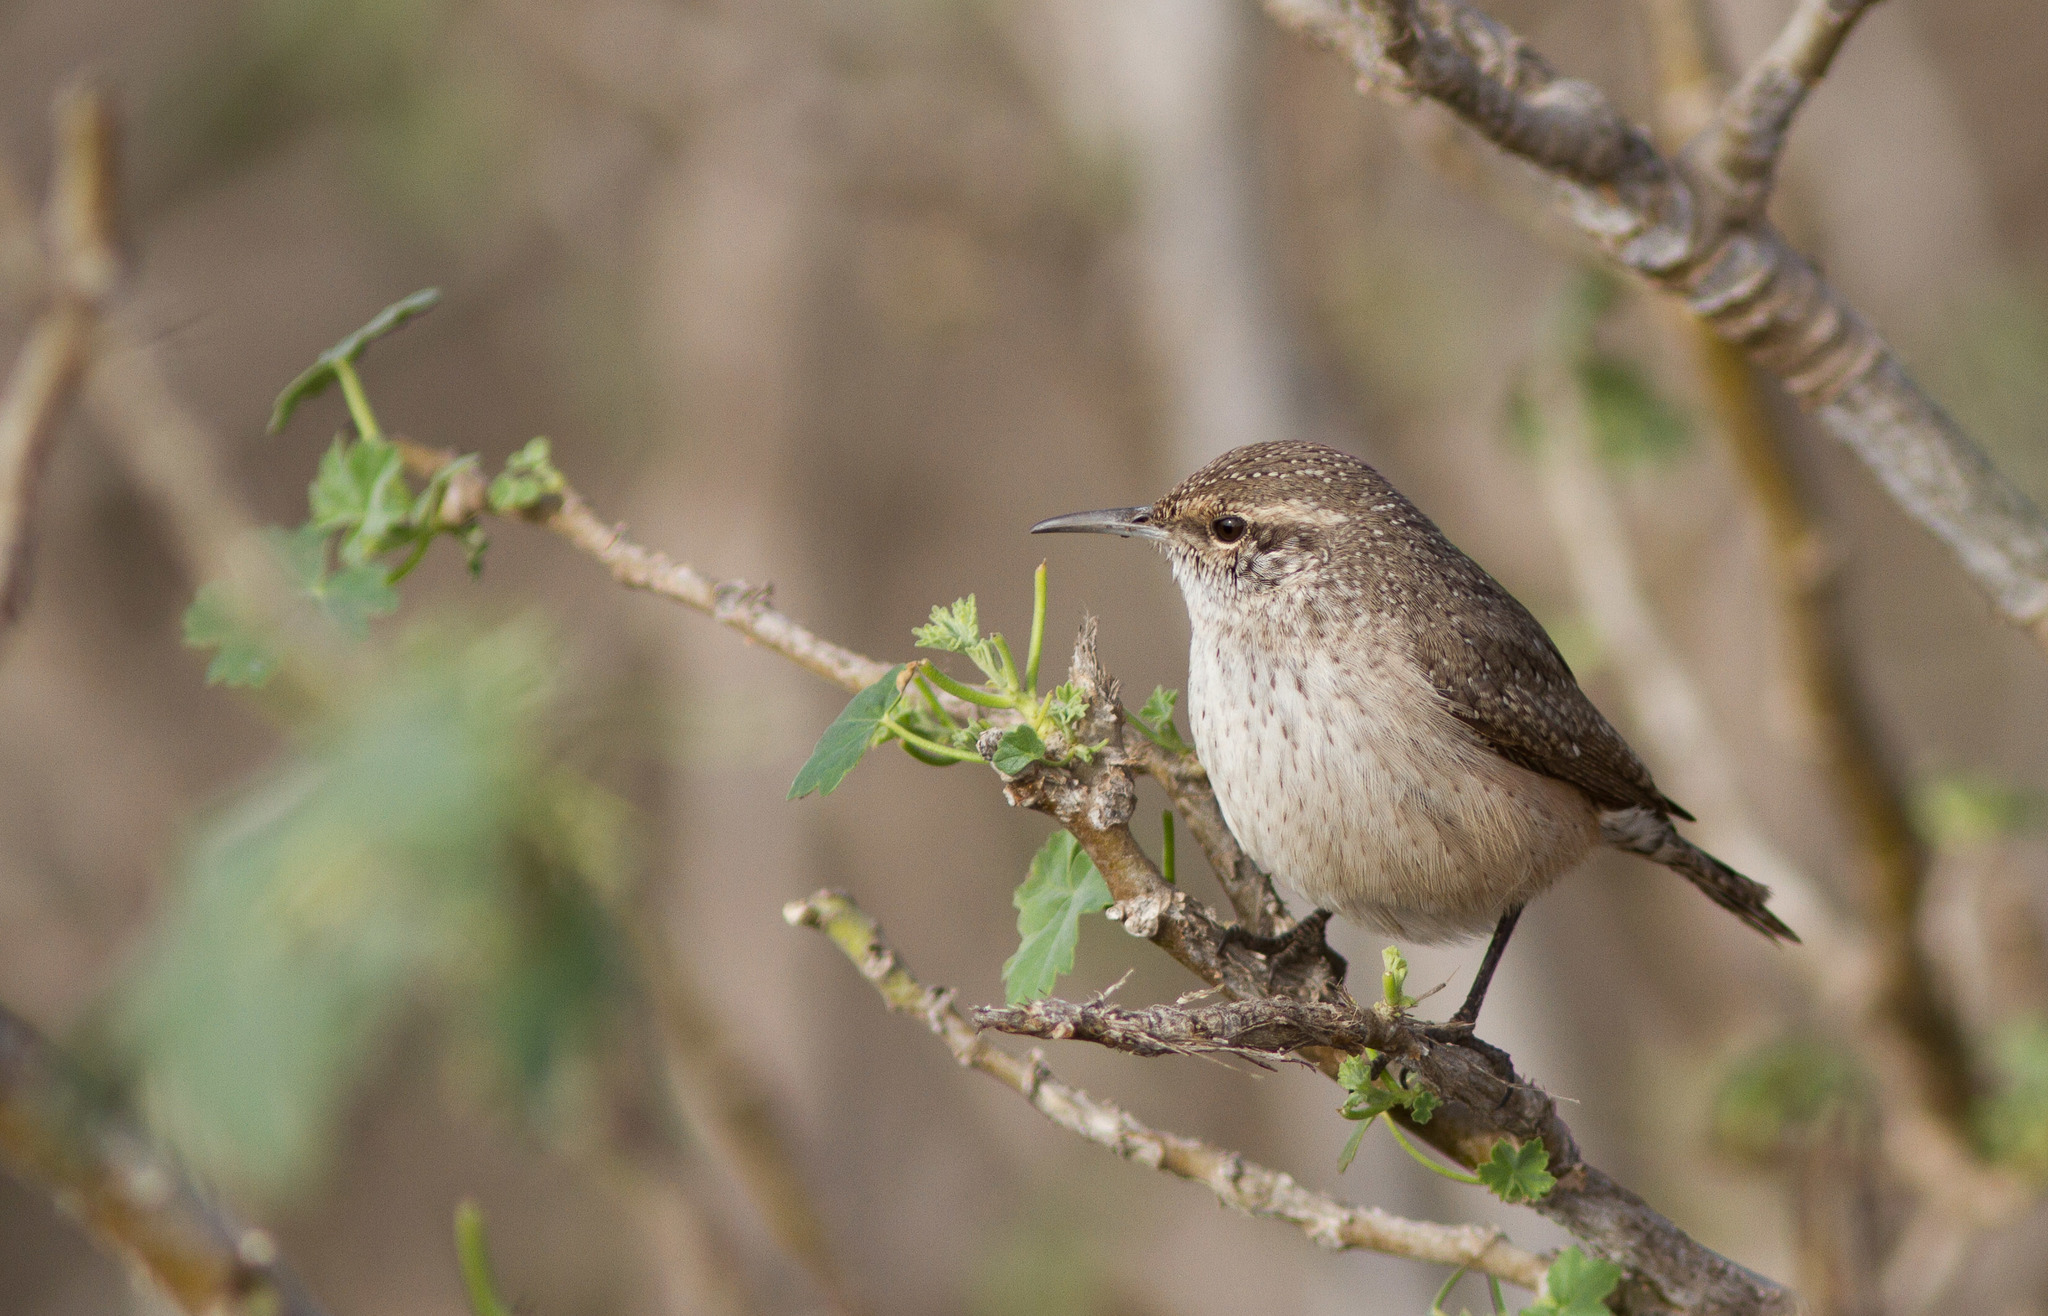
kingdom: Animalia
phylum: Chordata
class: Aves
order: Passeriformes
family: Troglodytidae
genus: Salpinctes
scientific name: Salpinctes obsoletus
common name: Rock wren
